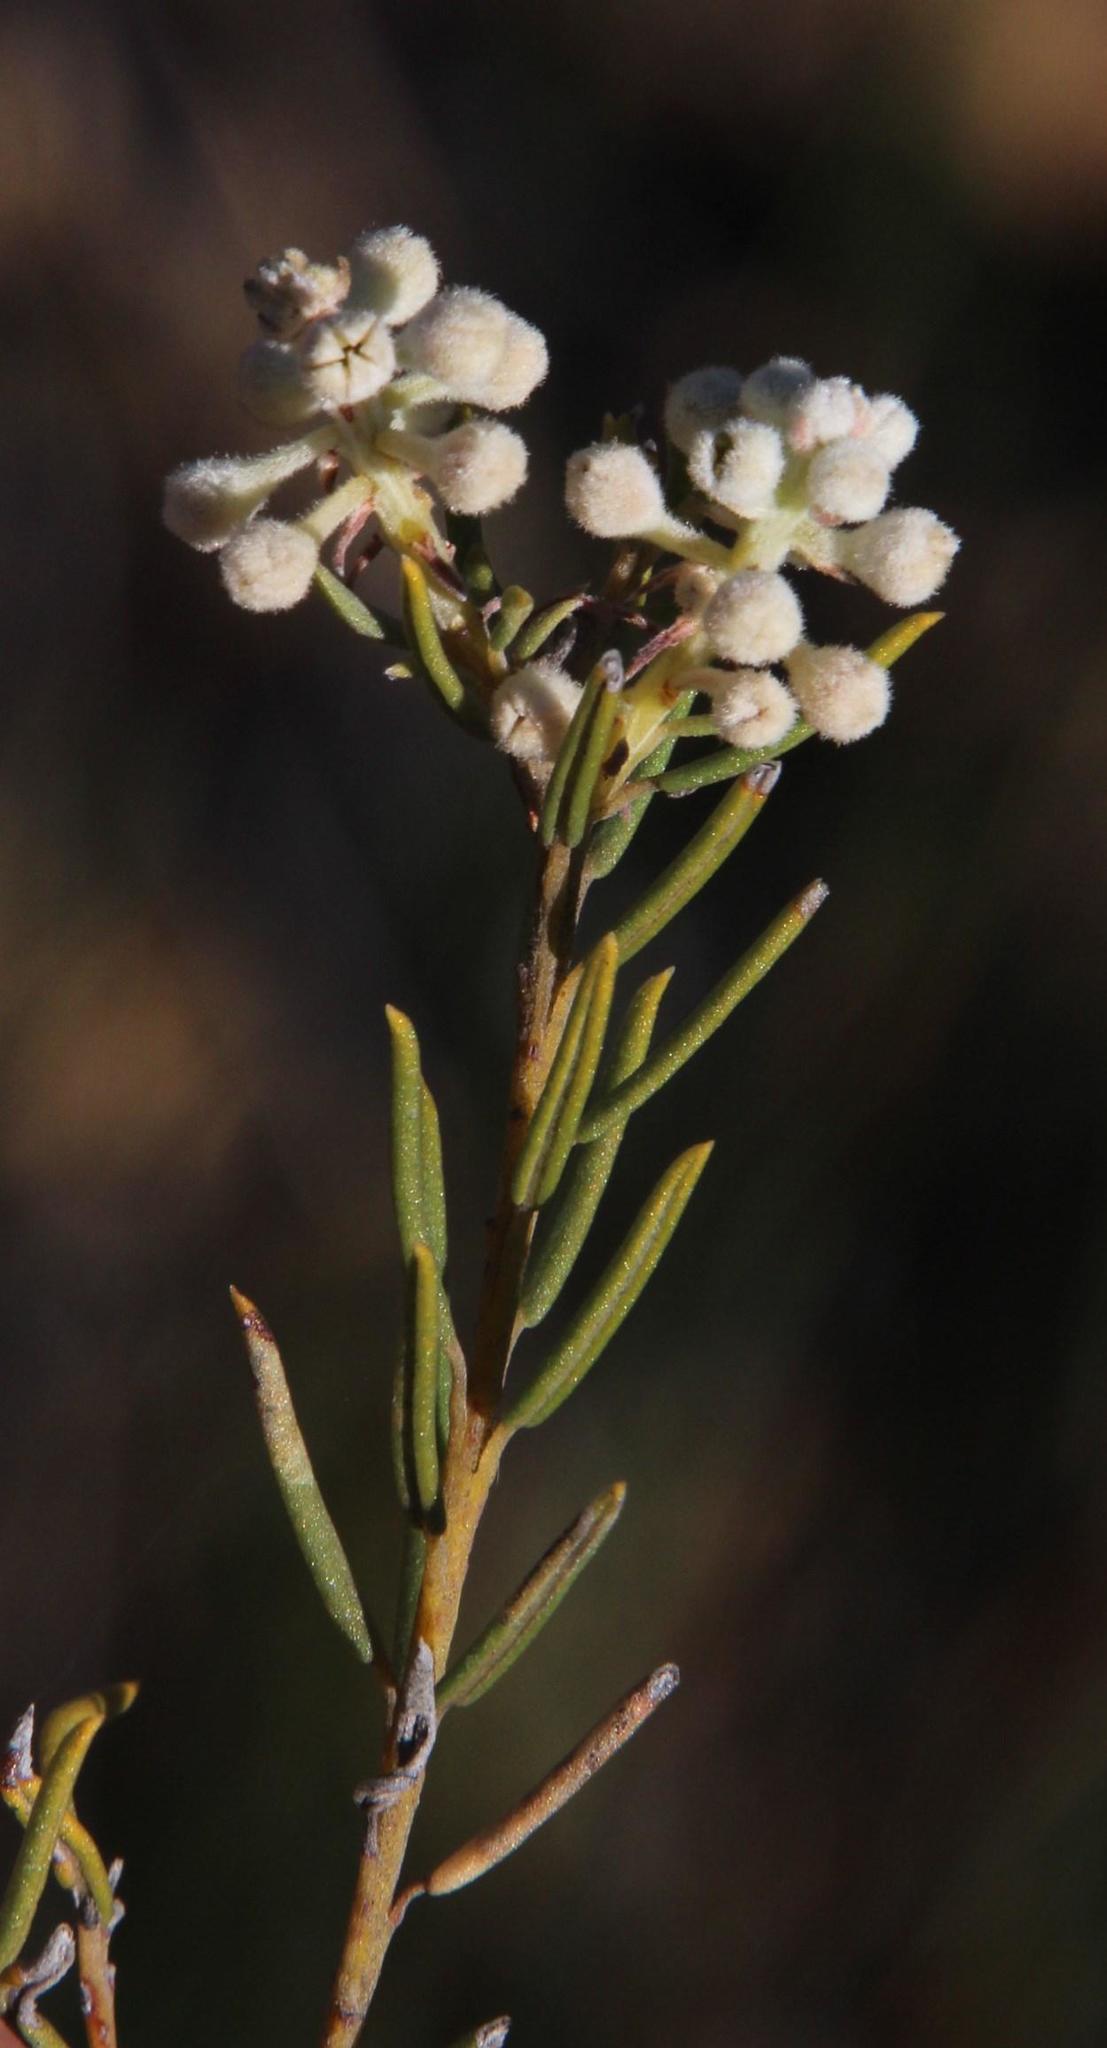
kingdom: Plantae
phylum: Tracheophyta
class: Magnoliopsida
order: Rosales
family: Rhamnaceae
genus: Phylica
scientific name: Phylica rigidifolia
